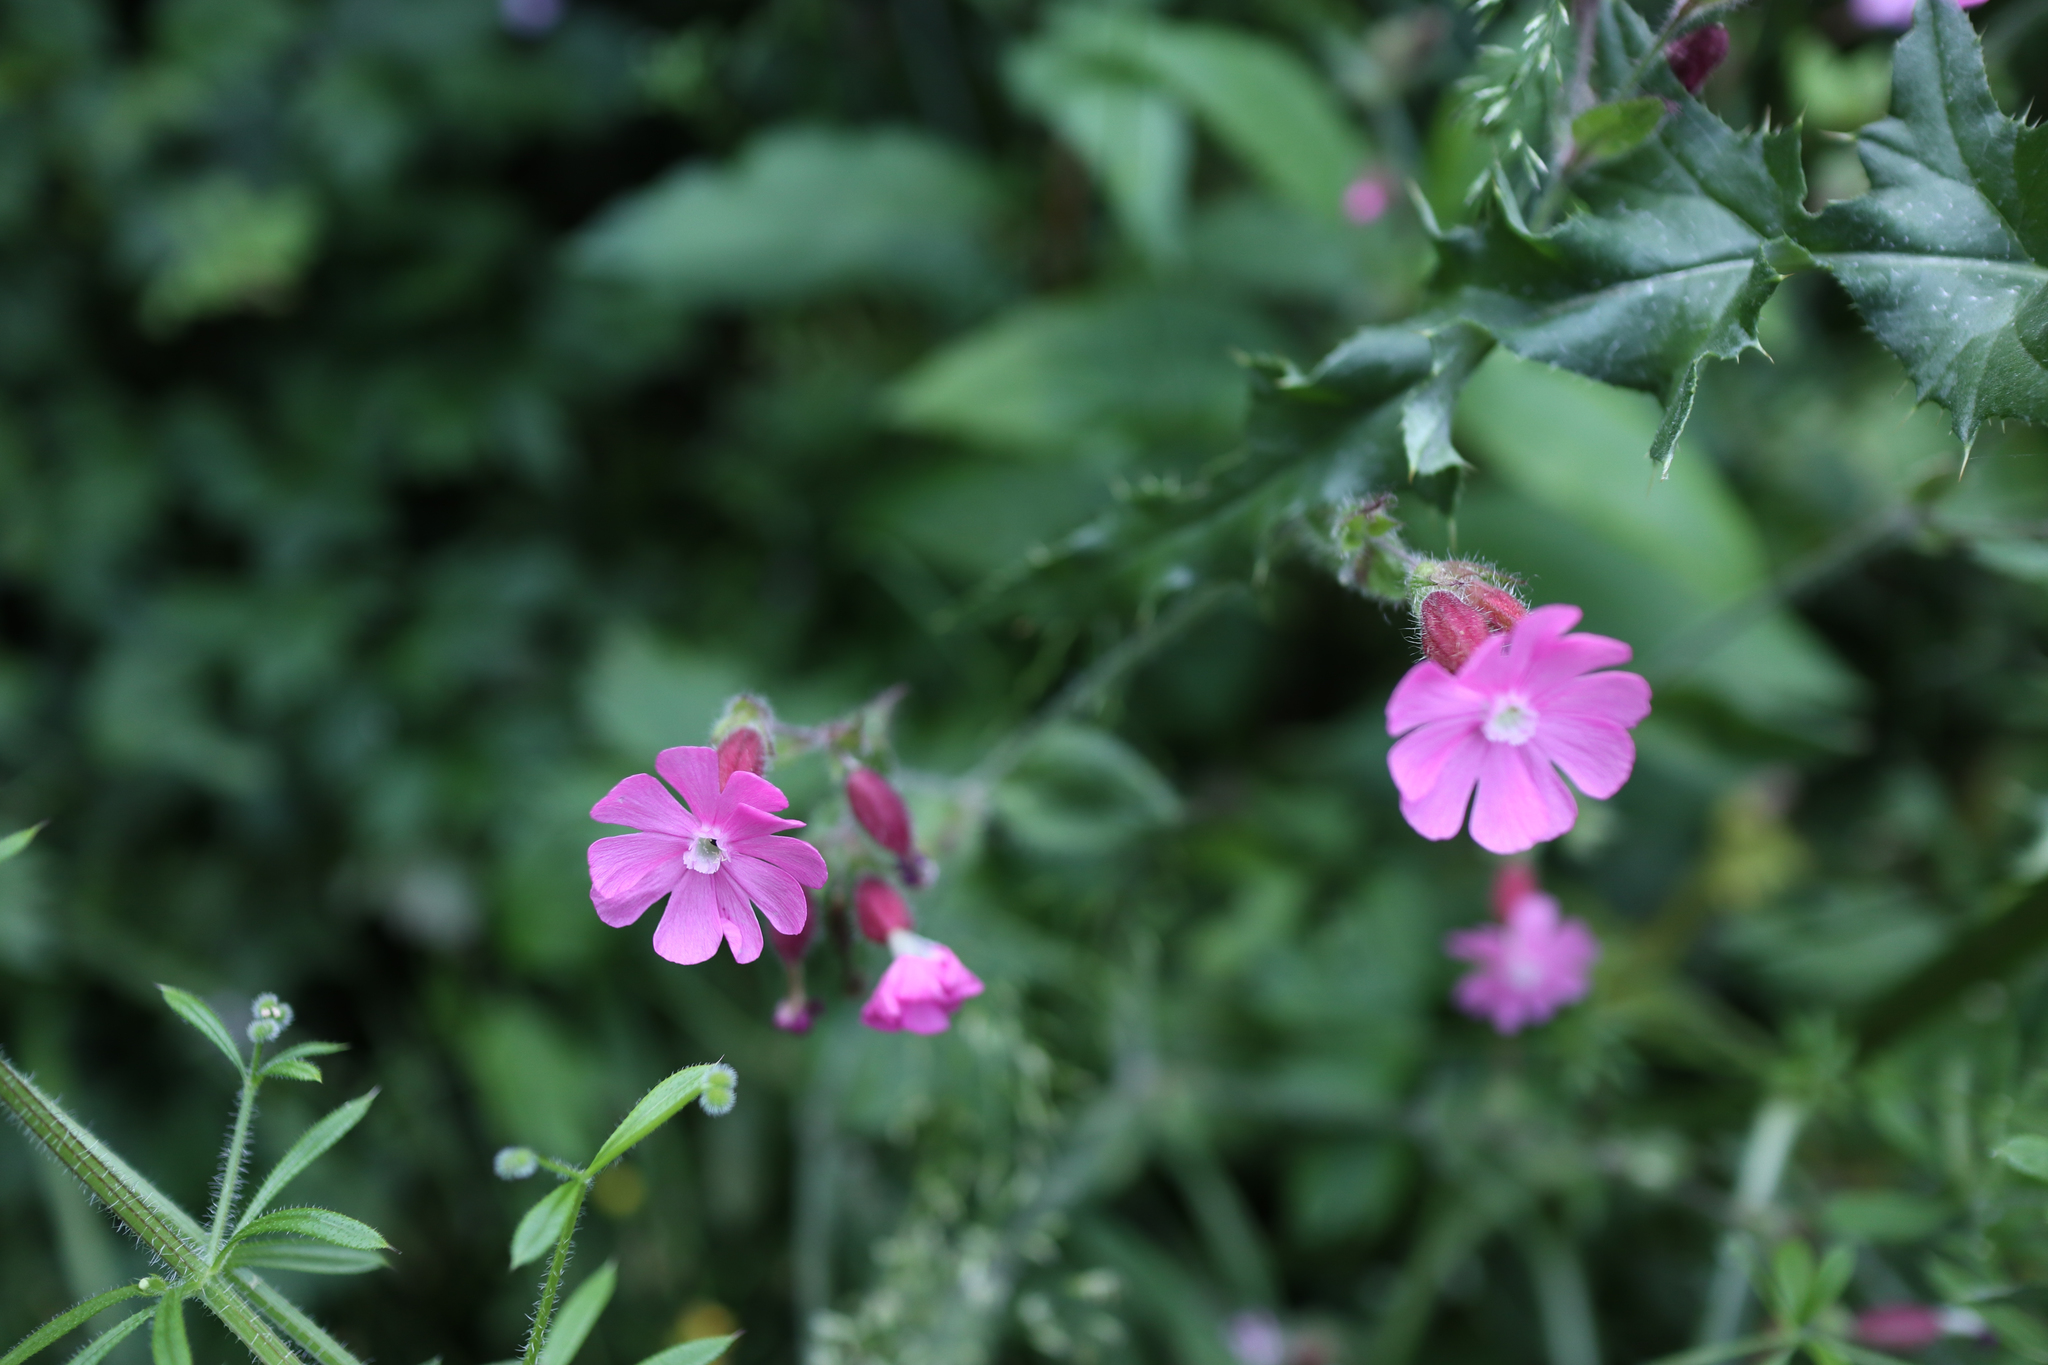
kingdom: Plantae
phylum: Tracheophyta
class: Magnoliopsida
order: Caryophyllales
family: Caryophyllaceae
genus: Silene
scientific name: Silene dioica
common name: Red campion
